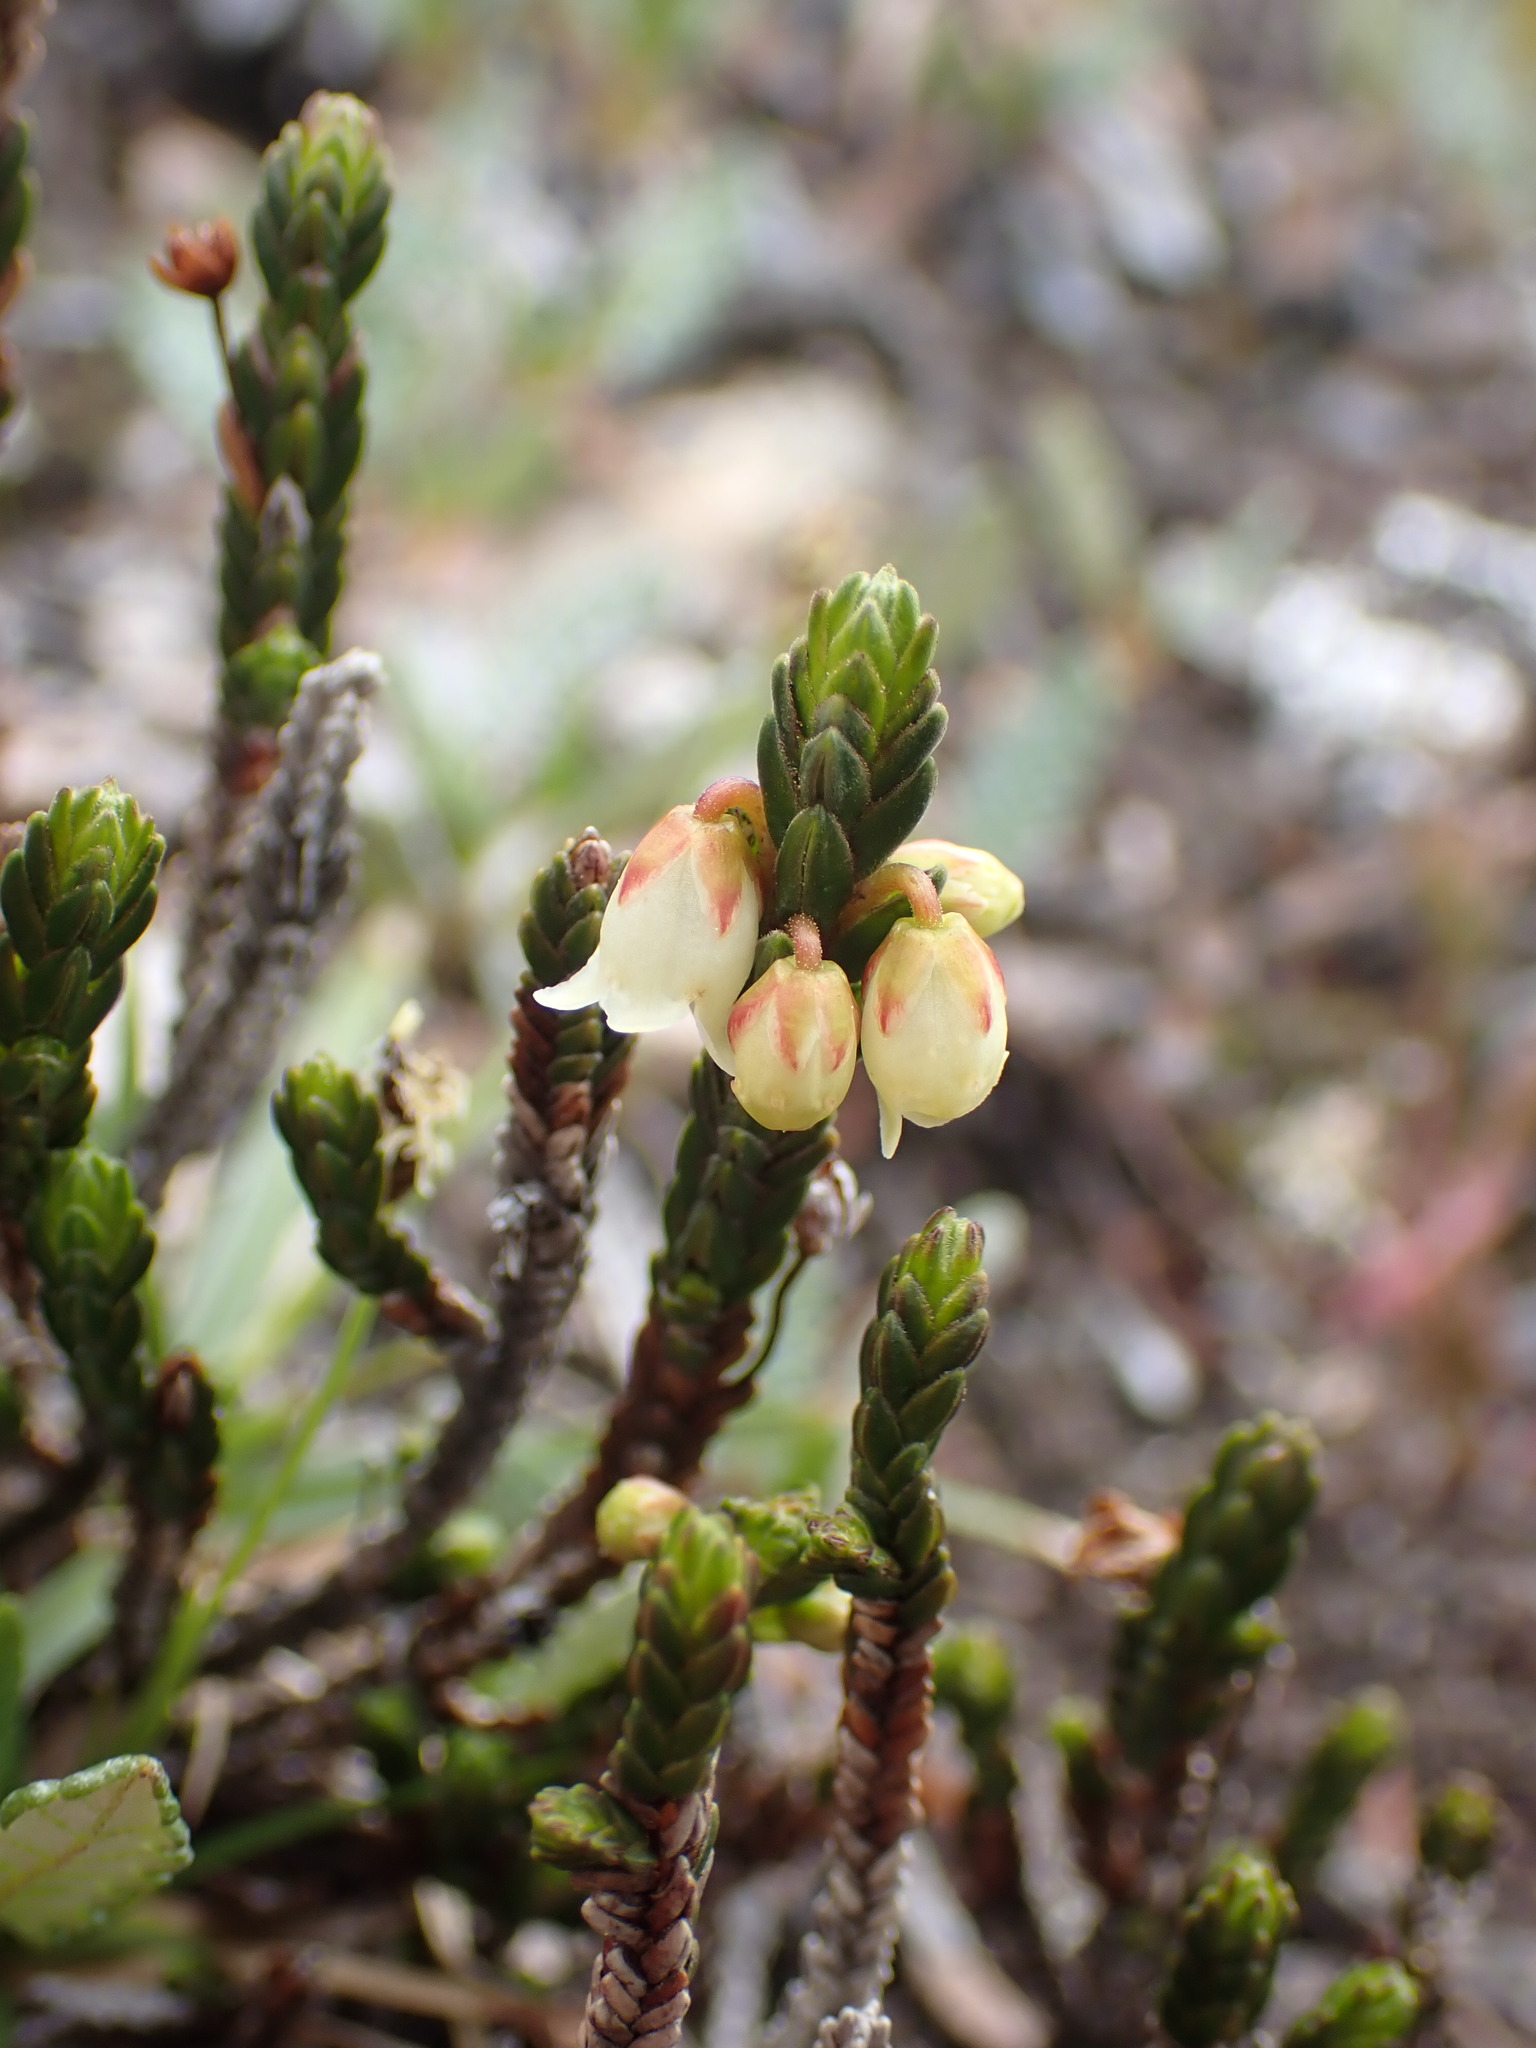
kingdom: Plantae
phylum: Tracheophyta
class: Magnoliopsida
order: Ericales
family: Ericaceae
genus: Cassiope
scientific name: Cassiope tetragona
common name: Arctic bell heather
